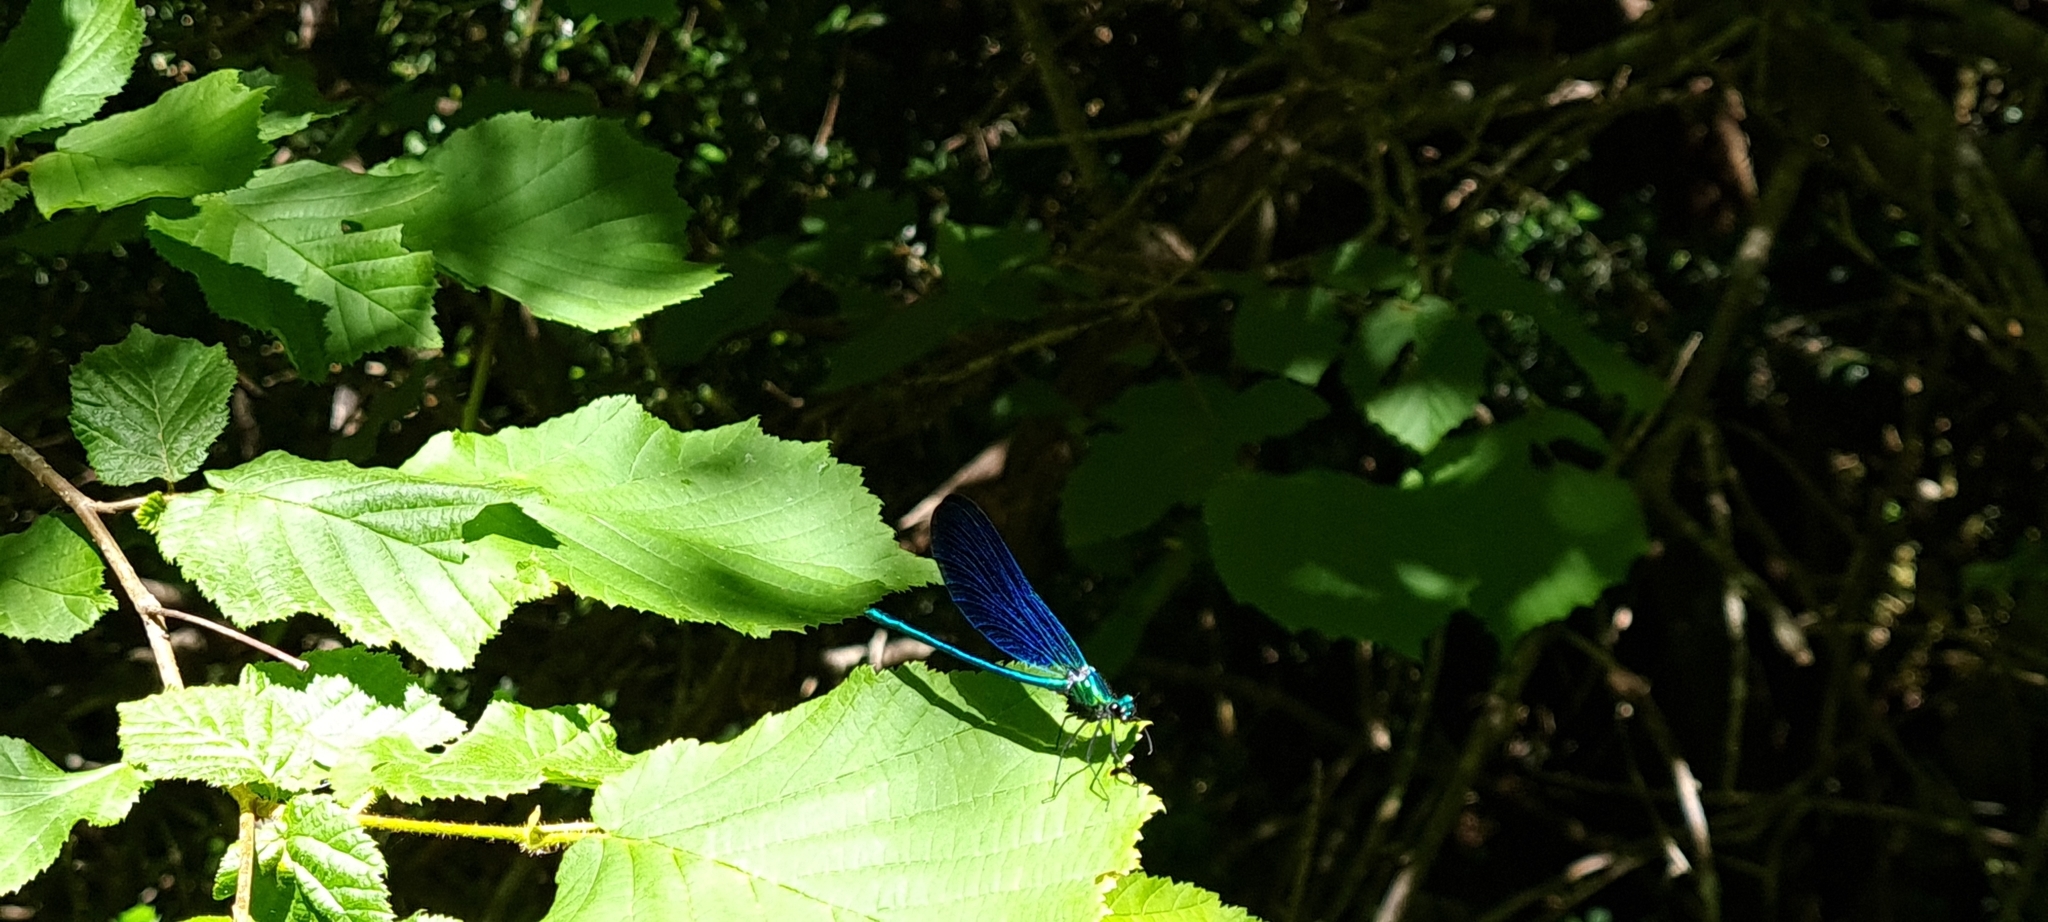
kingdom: Animalia
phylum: Arthropoda
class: Insecta
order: Odonata
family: Calopterygidae
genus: Calopteryx
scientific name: Calopteryx virgo
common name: Beautiful demoiselle
